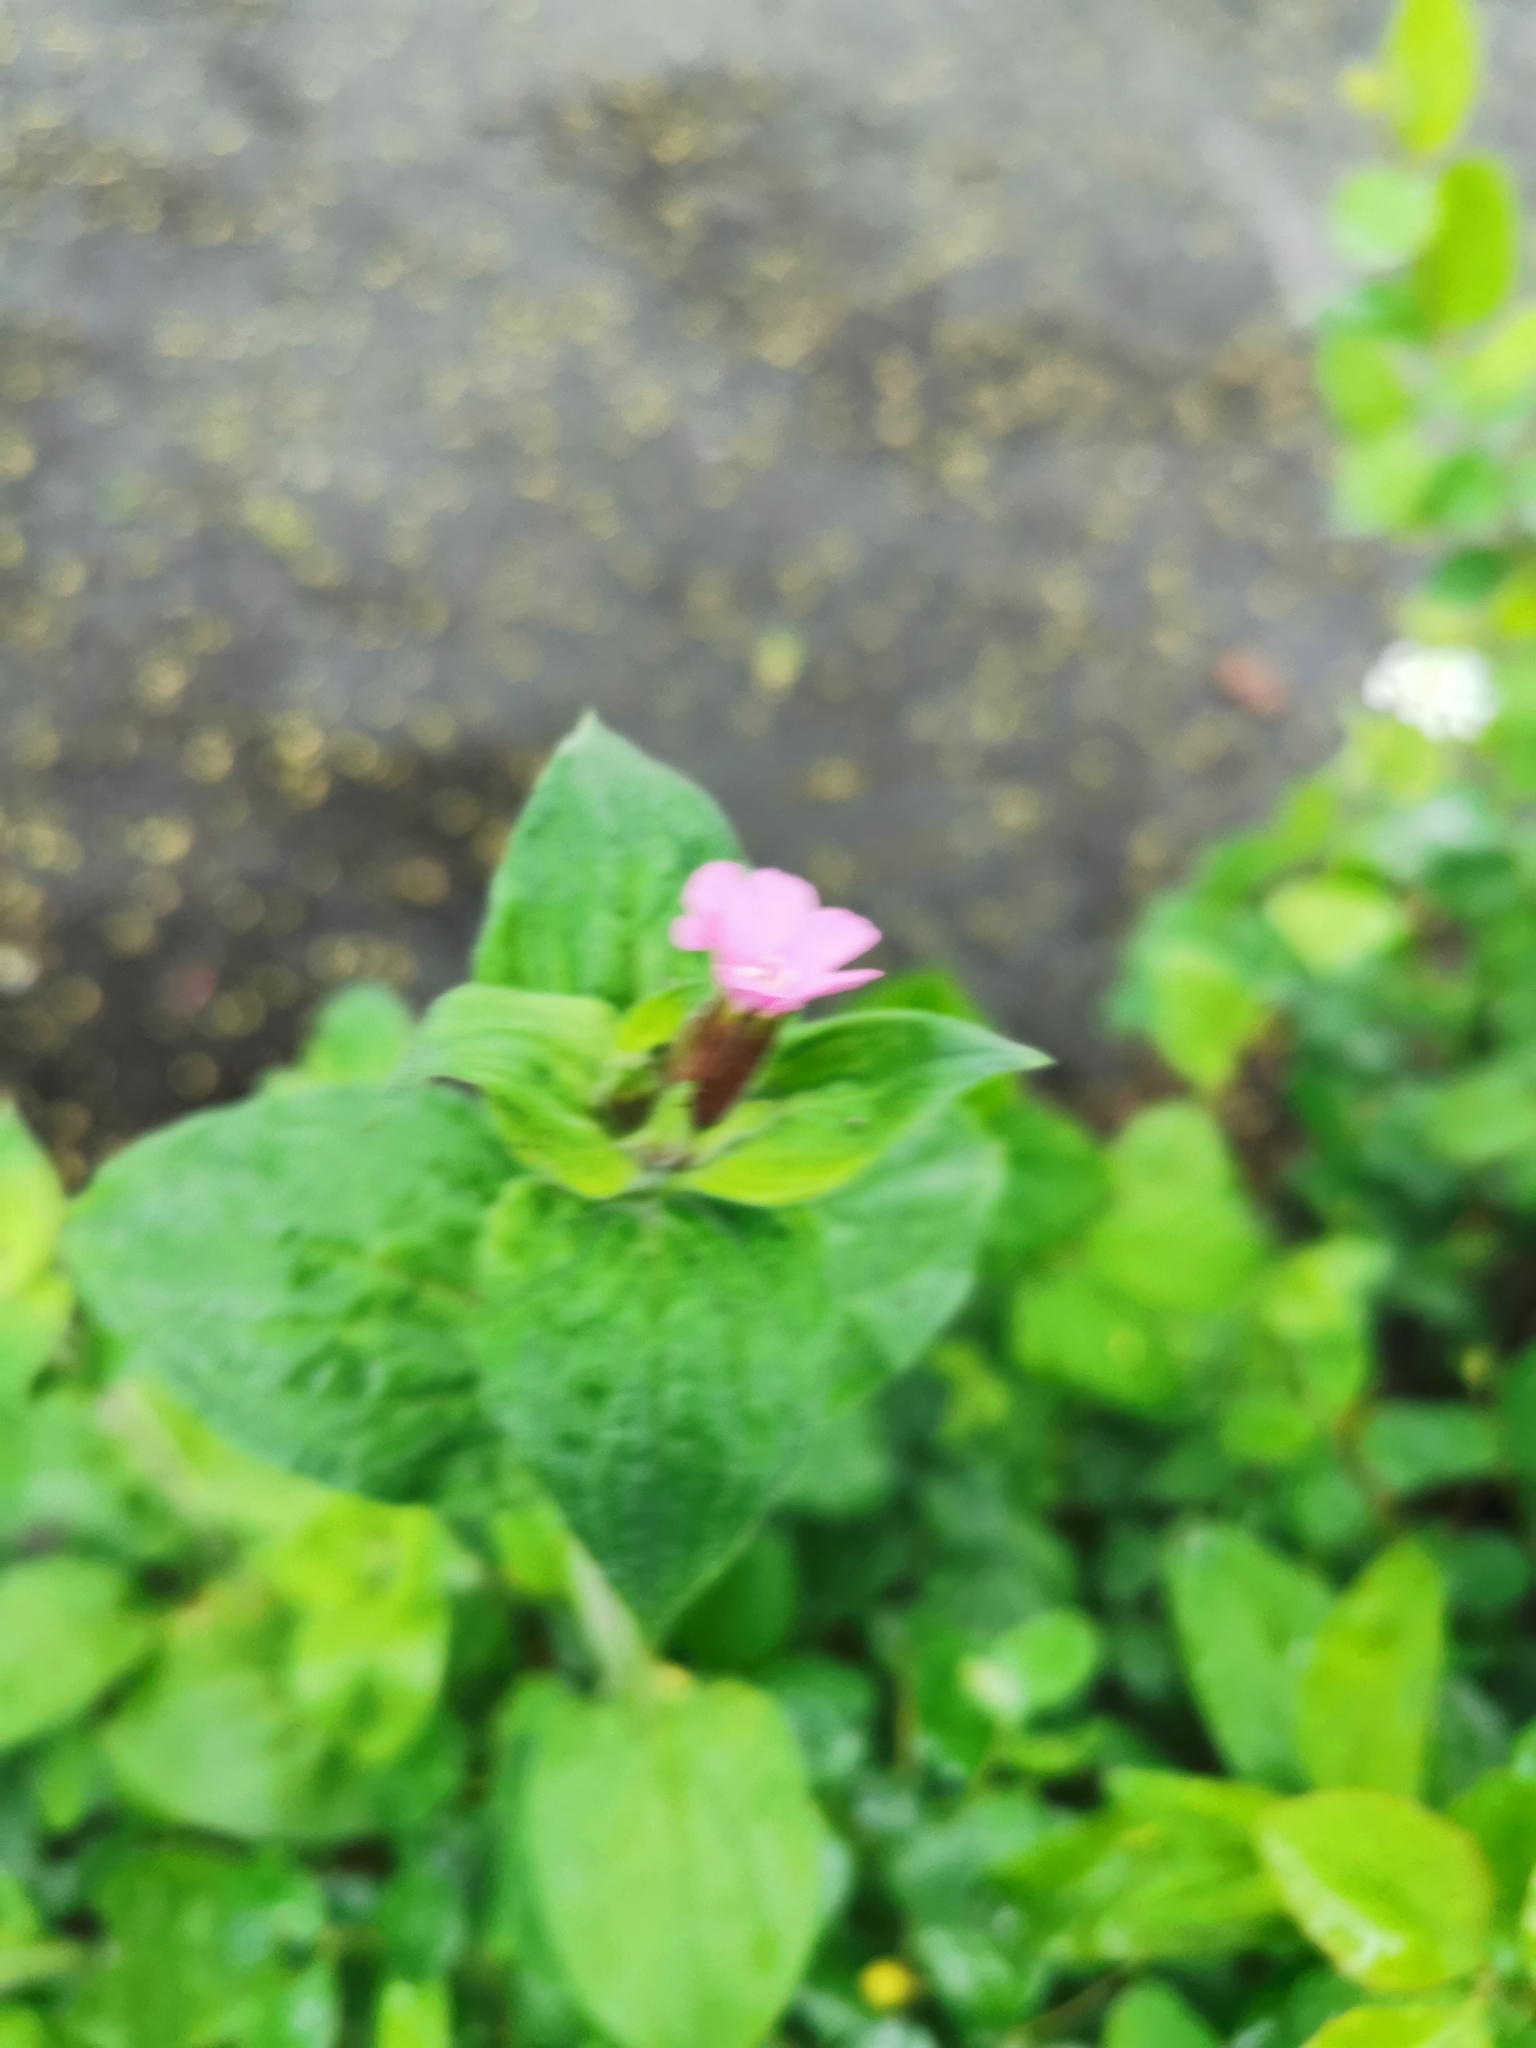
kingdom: Plantae
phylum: Tracheophyta
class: Magnoliopsida
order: Caryophyllales
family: Caryophyllaceae
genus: Silene
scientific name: Silene dioica
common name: Red campion
